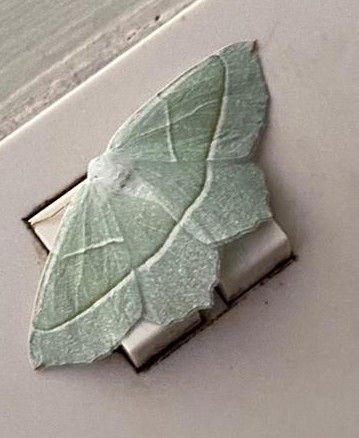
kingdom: Animalia
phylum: Arthropoda
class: Insecta
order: Lepidoptera
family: Geometridae
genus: Campaea
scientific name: Campaea margaritaria
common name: Light emerald
